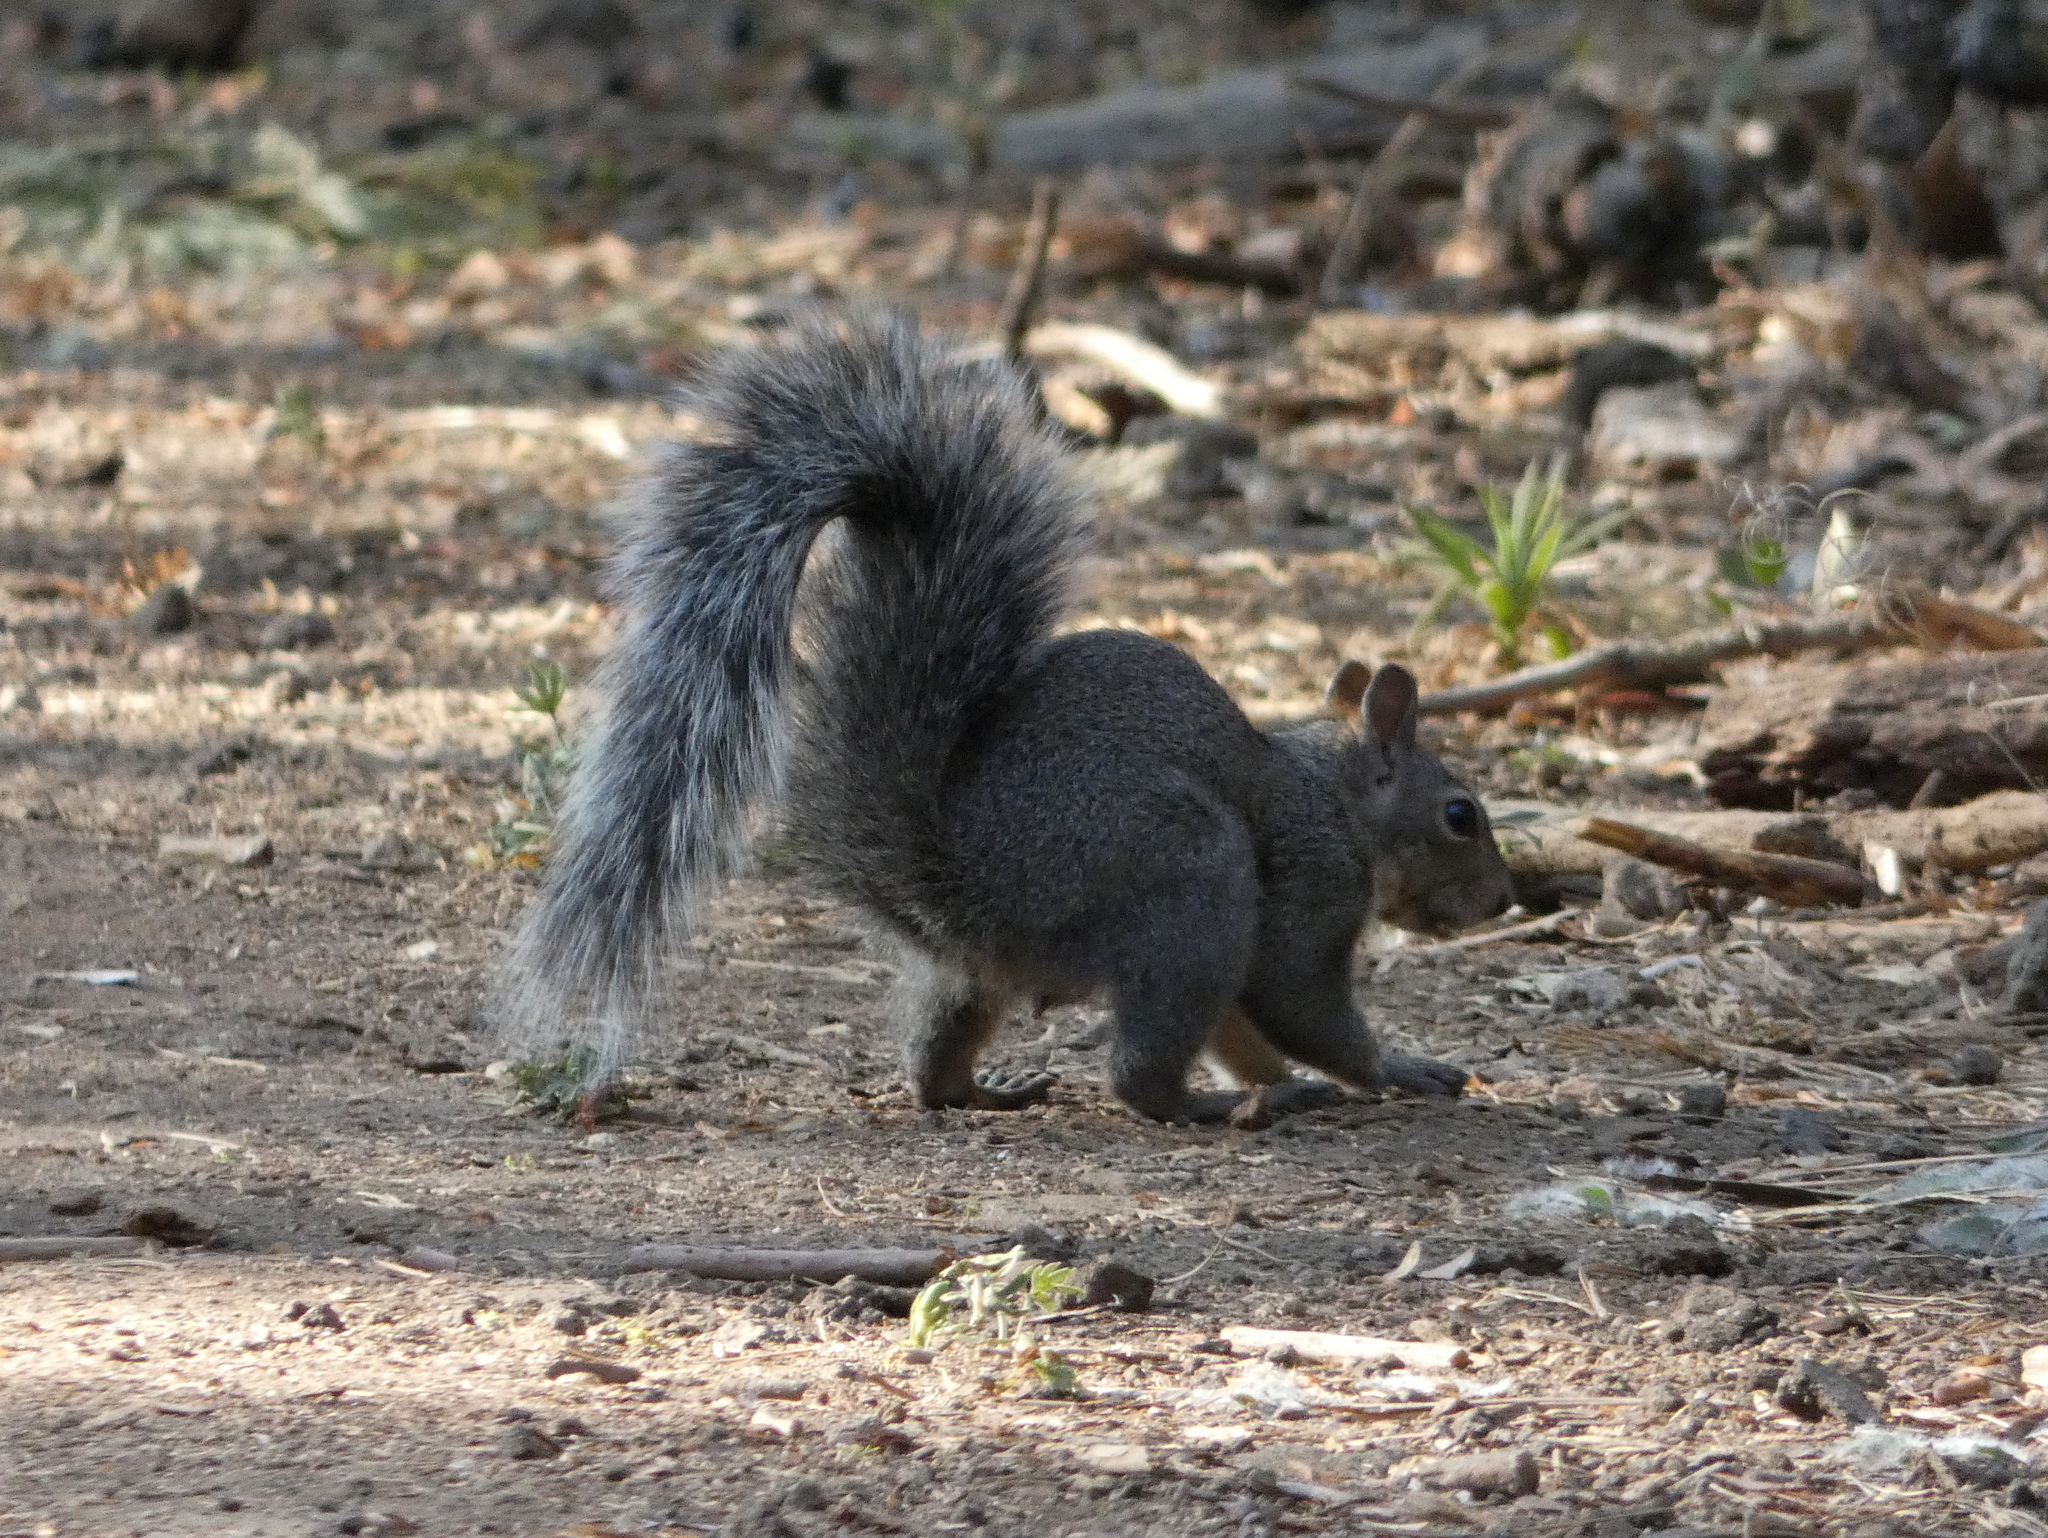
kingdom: Animalia
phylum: Chordata
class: Mammalia
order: Rodentia
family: Sciuridae
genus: Sciurus
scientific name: Sciurus griseus
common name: Western gray squirrel
